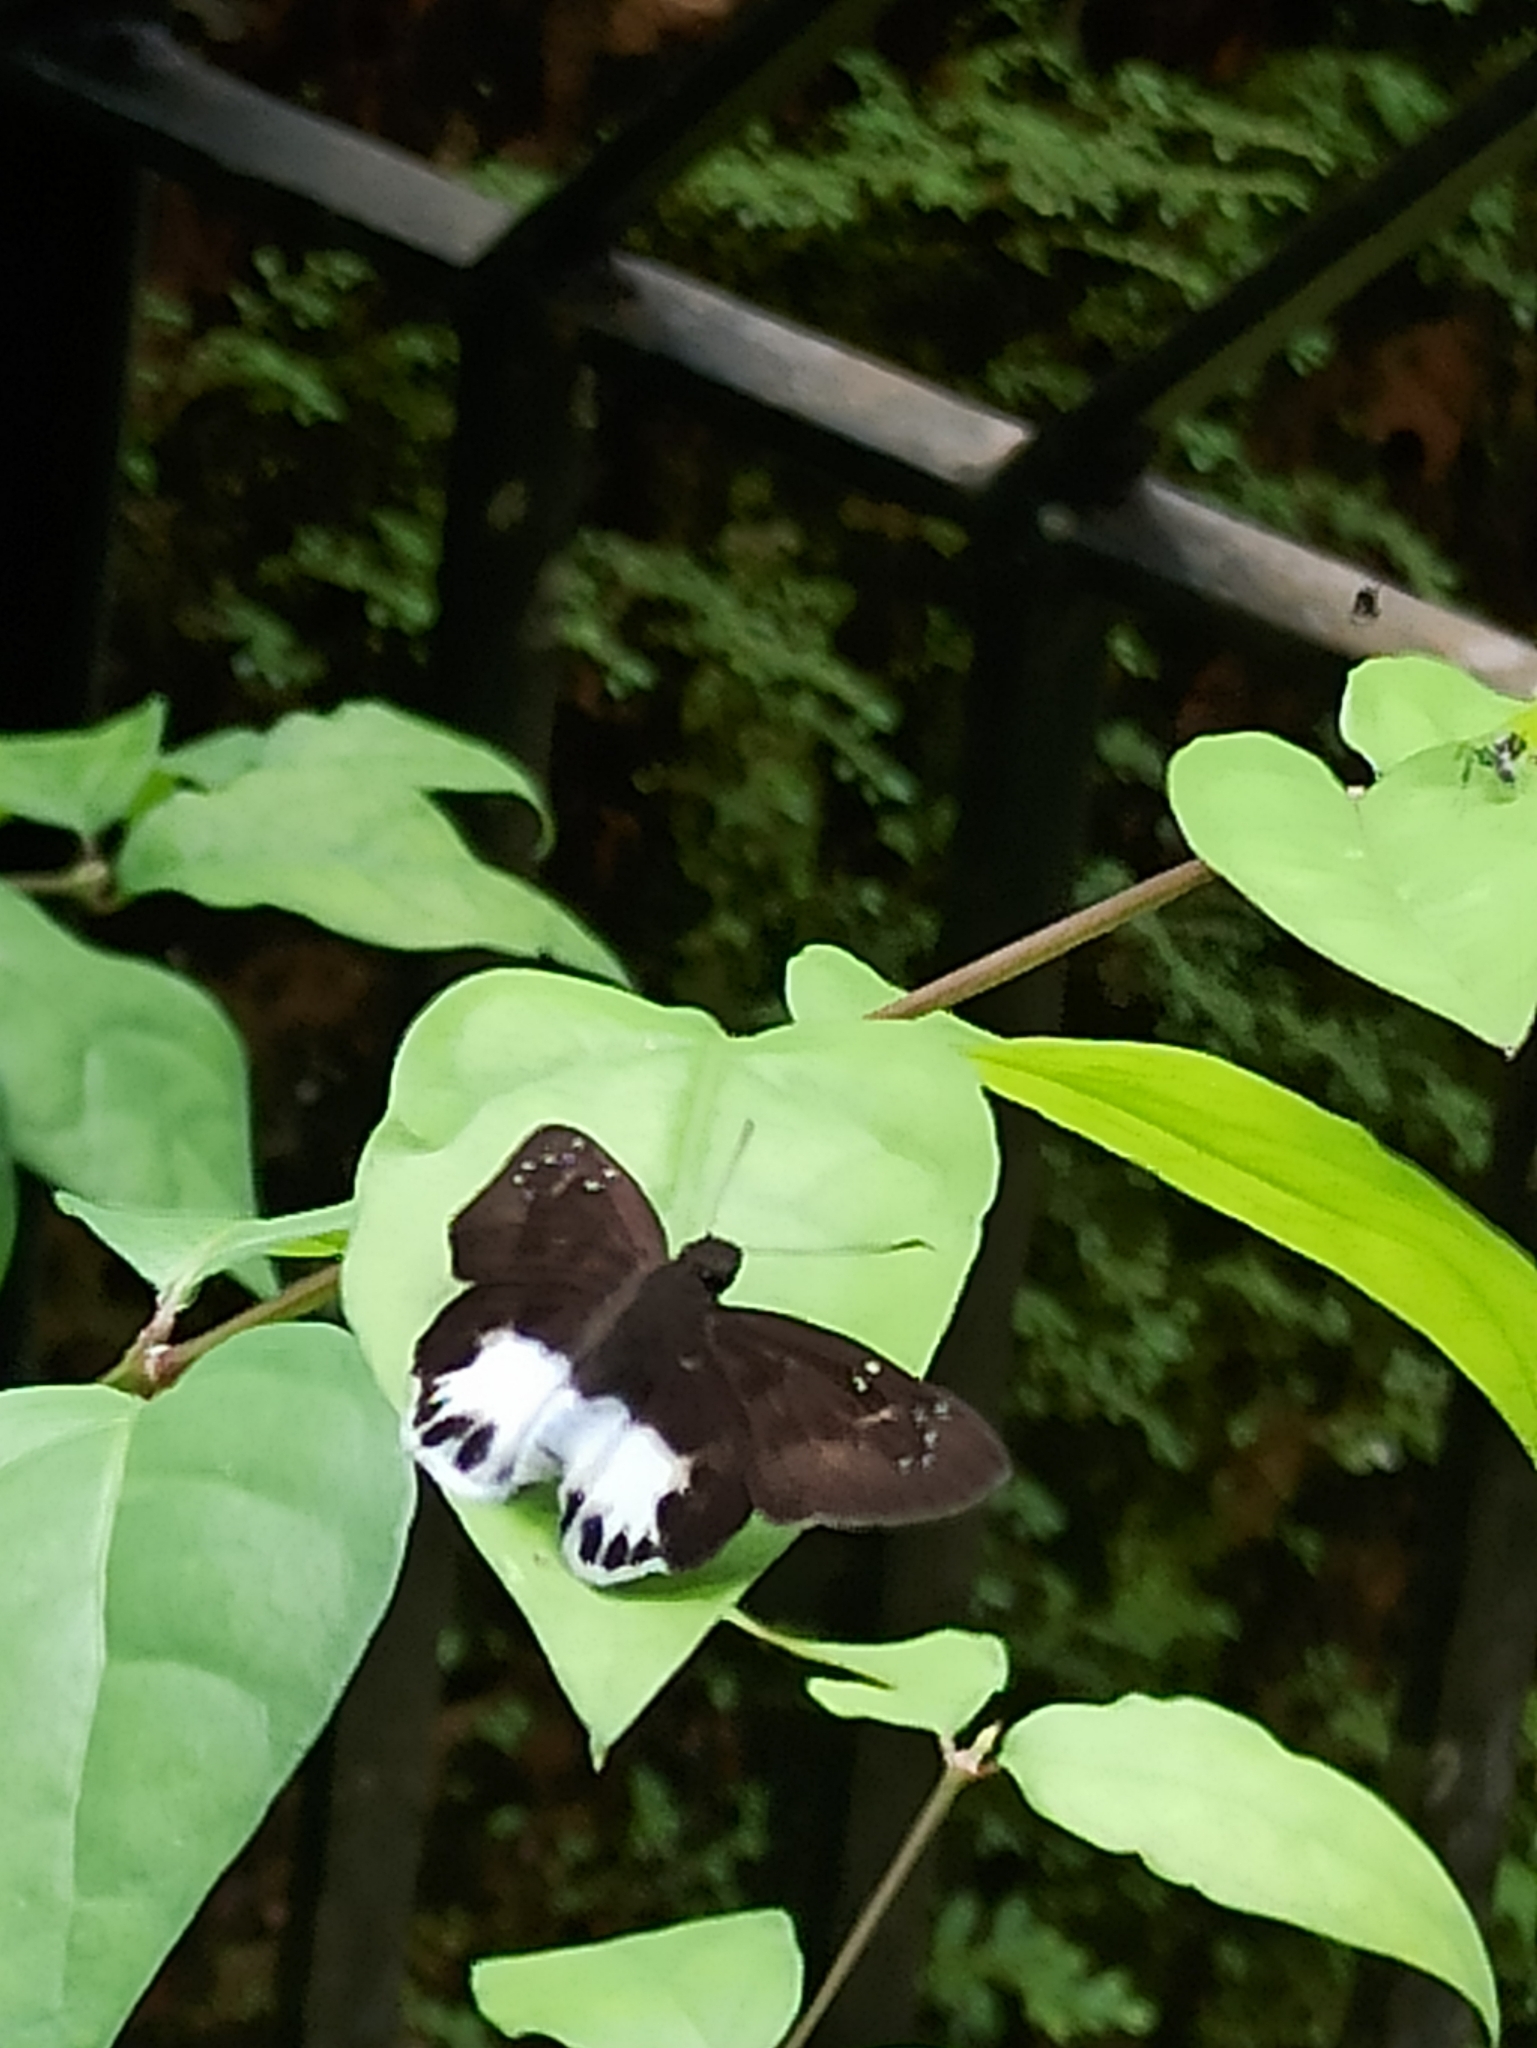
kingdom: Animalia
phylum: Arthropoda
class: Insecta
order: Lepidoptera
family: Hesperiidae
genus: Tagiades
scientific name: Tagiades litigiosa
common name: Water snow flat
